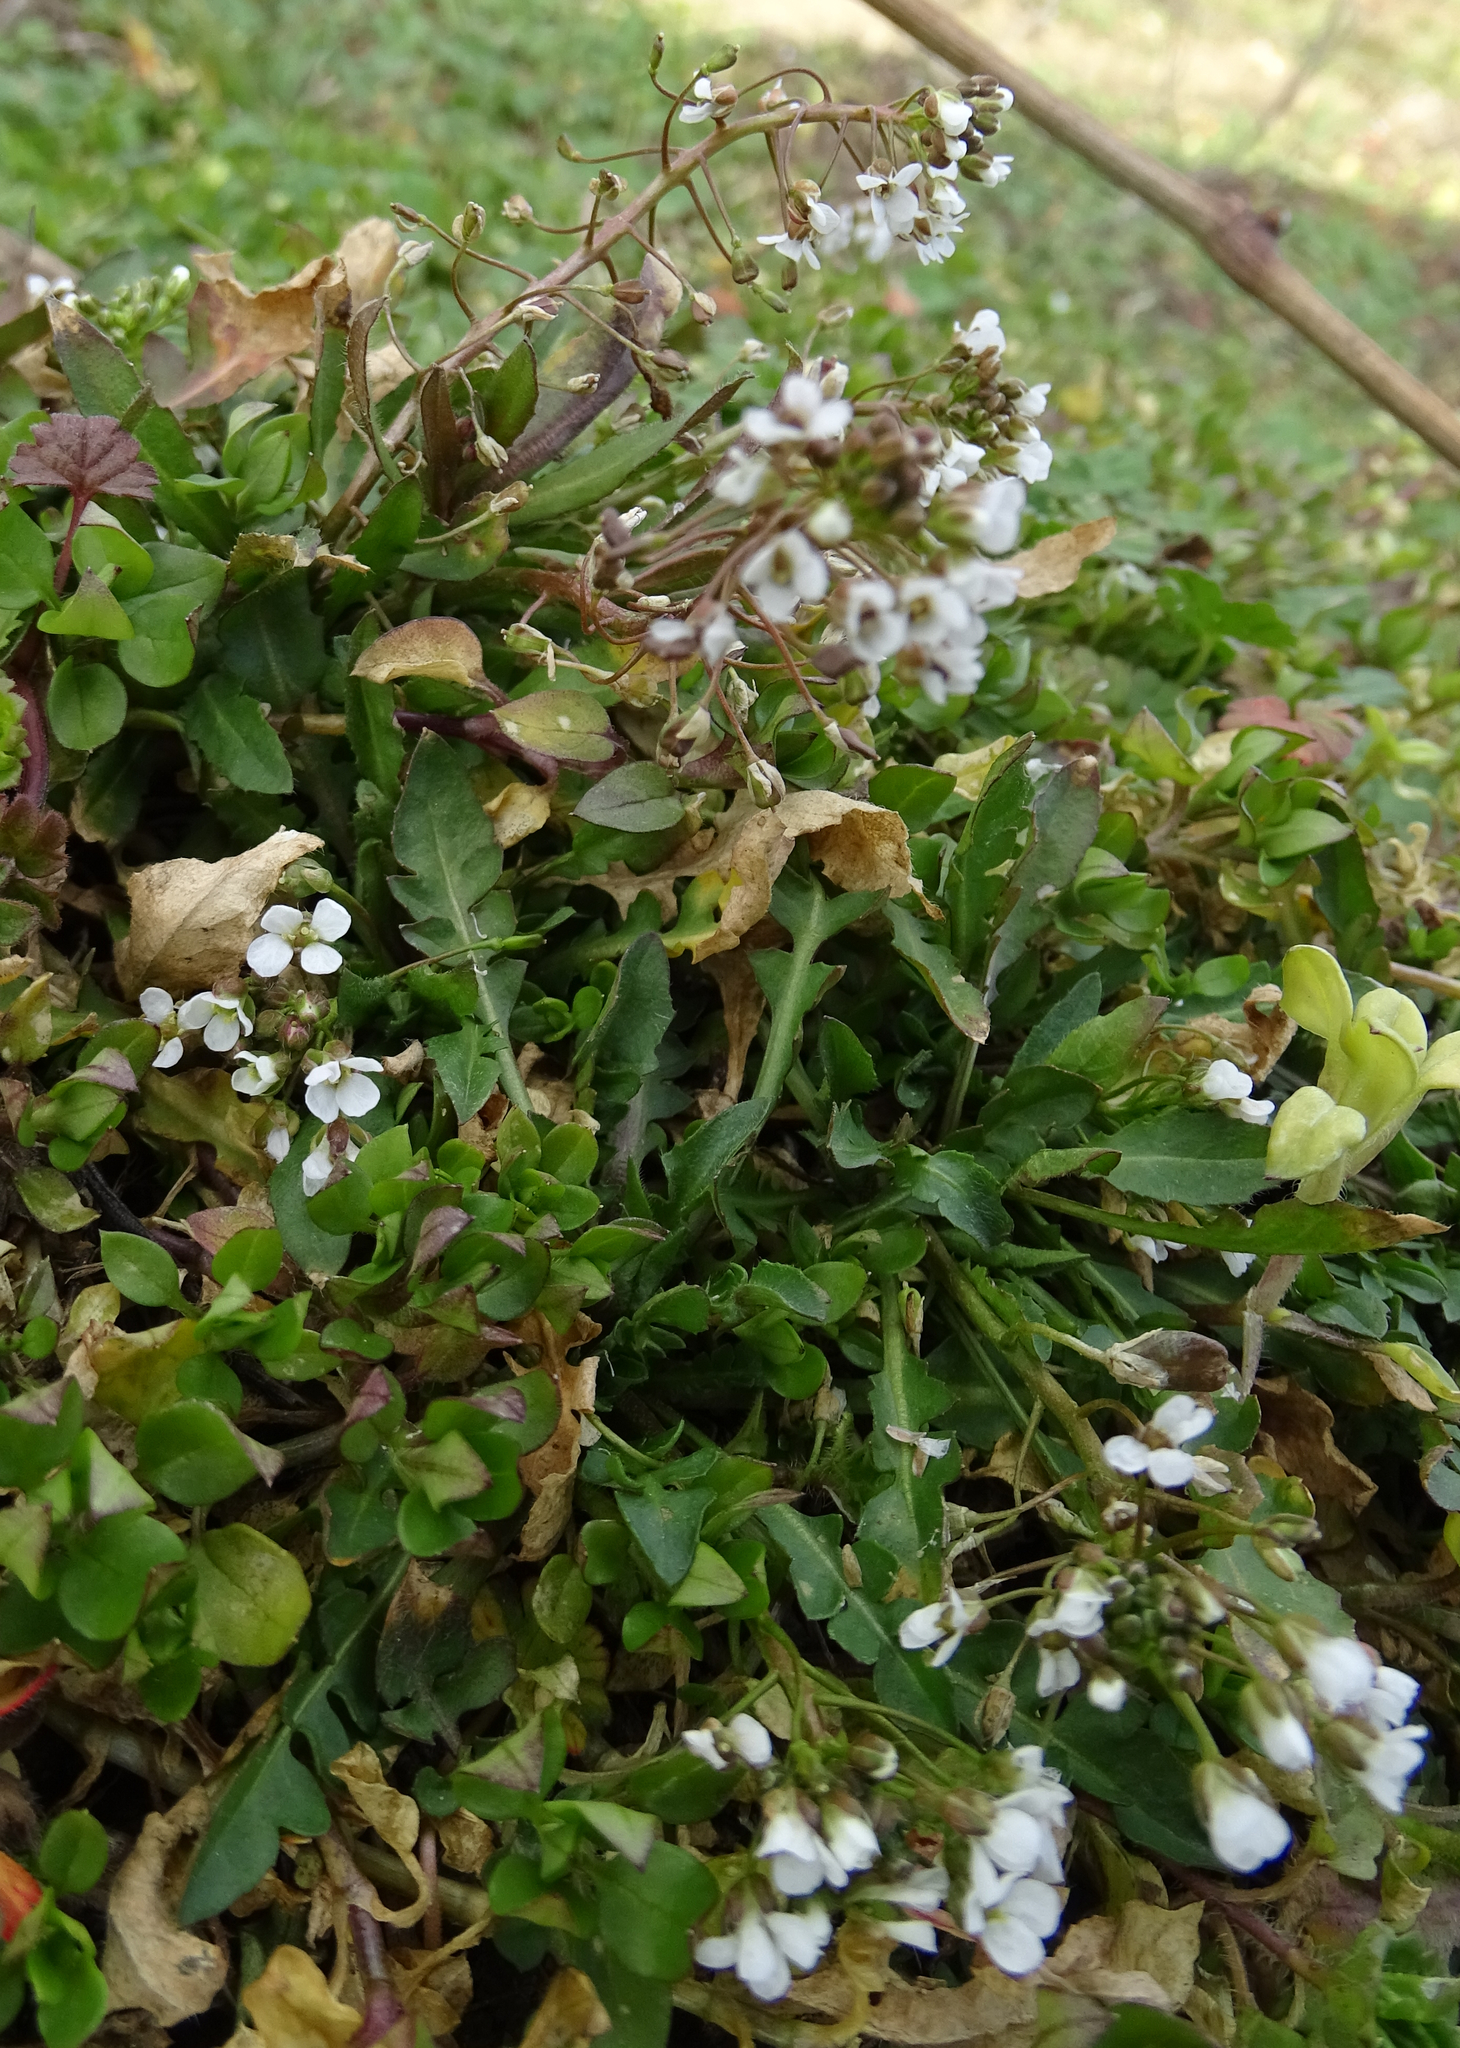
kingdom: Plantae
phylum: Tracheophyta
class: Magnoliopsida
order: Brassicales
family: Brassicaceae
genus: Capsella
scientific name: Capsella bursa-pastoris
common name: Shepherd's purse
